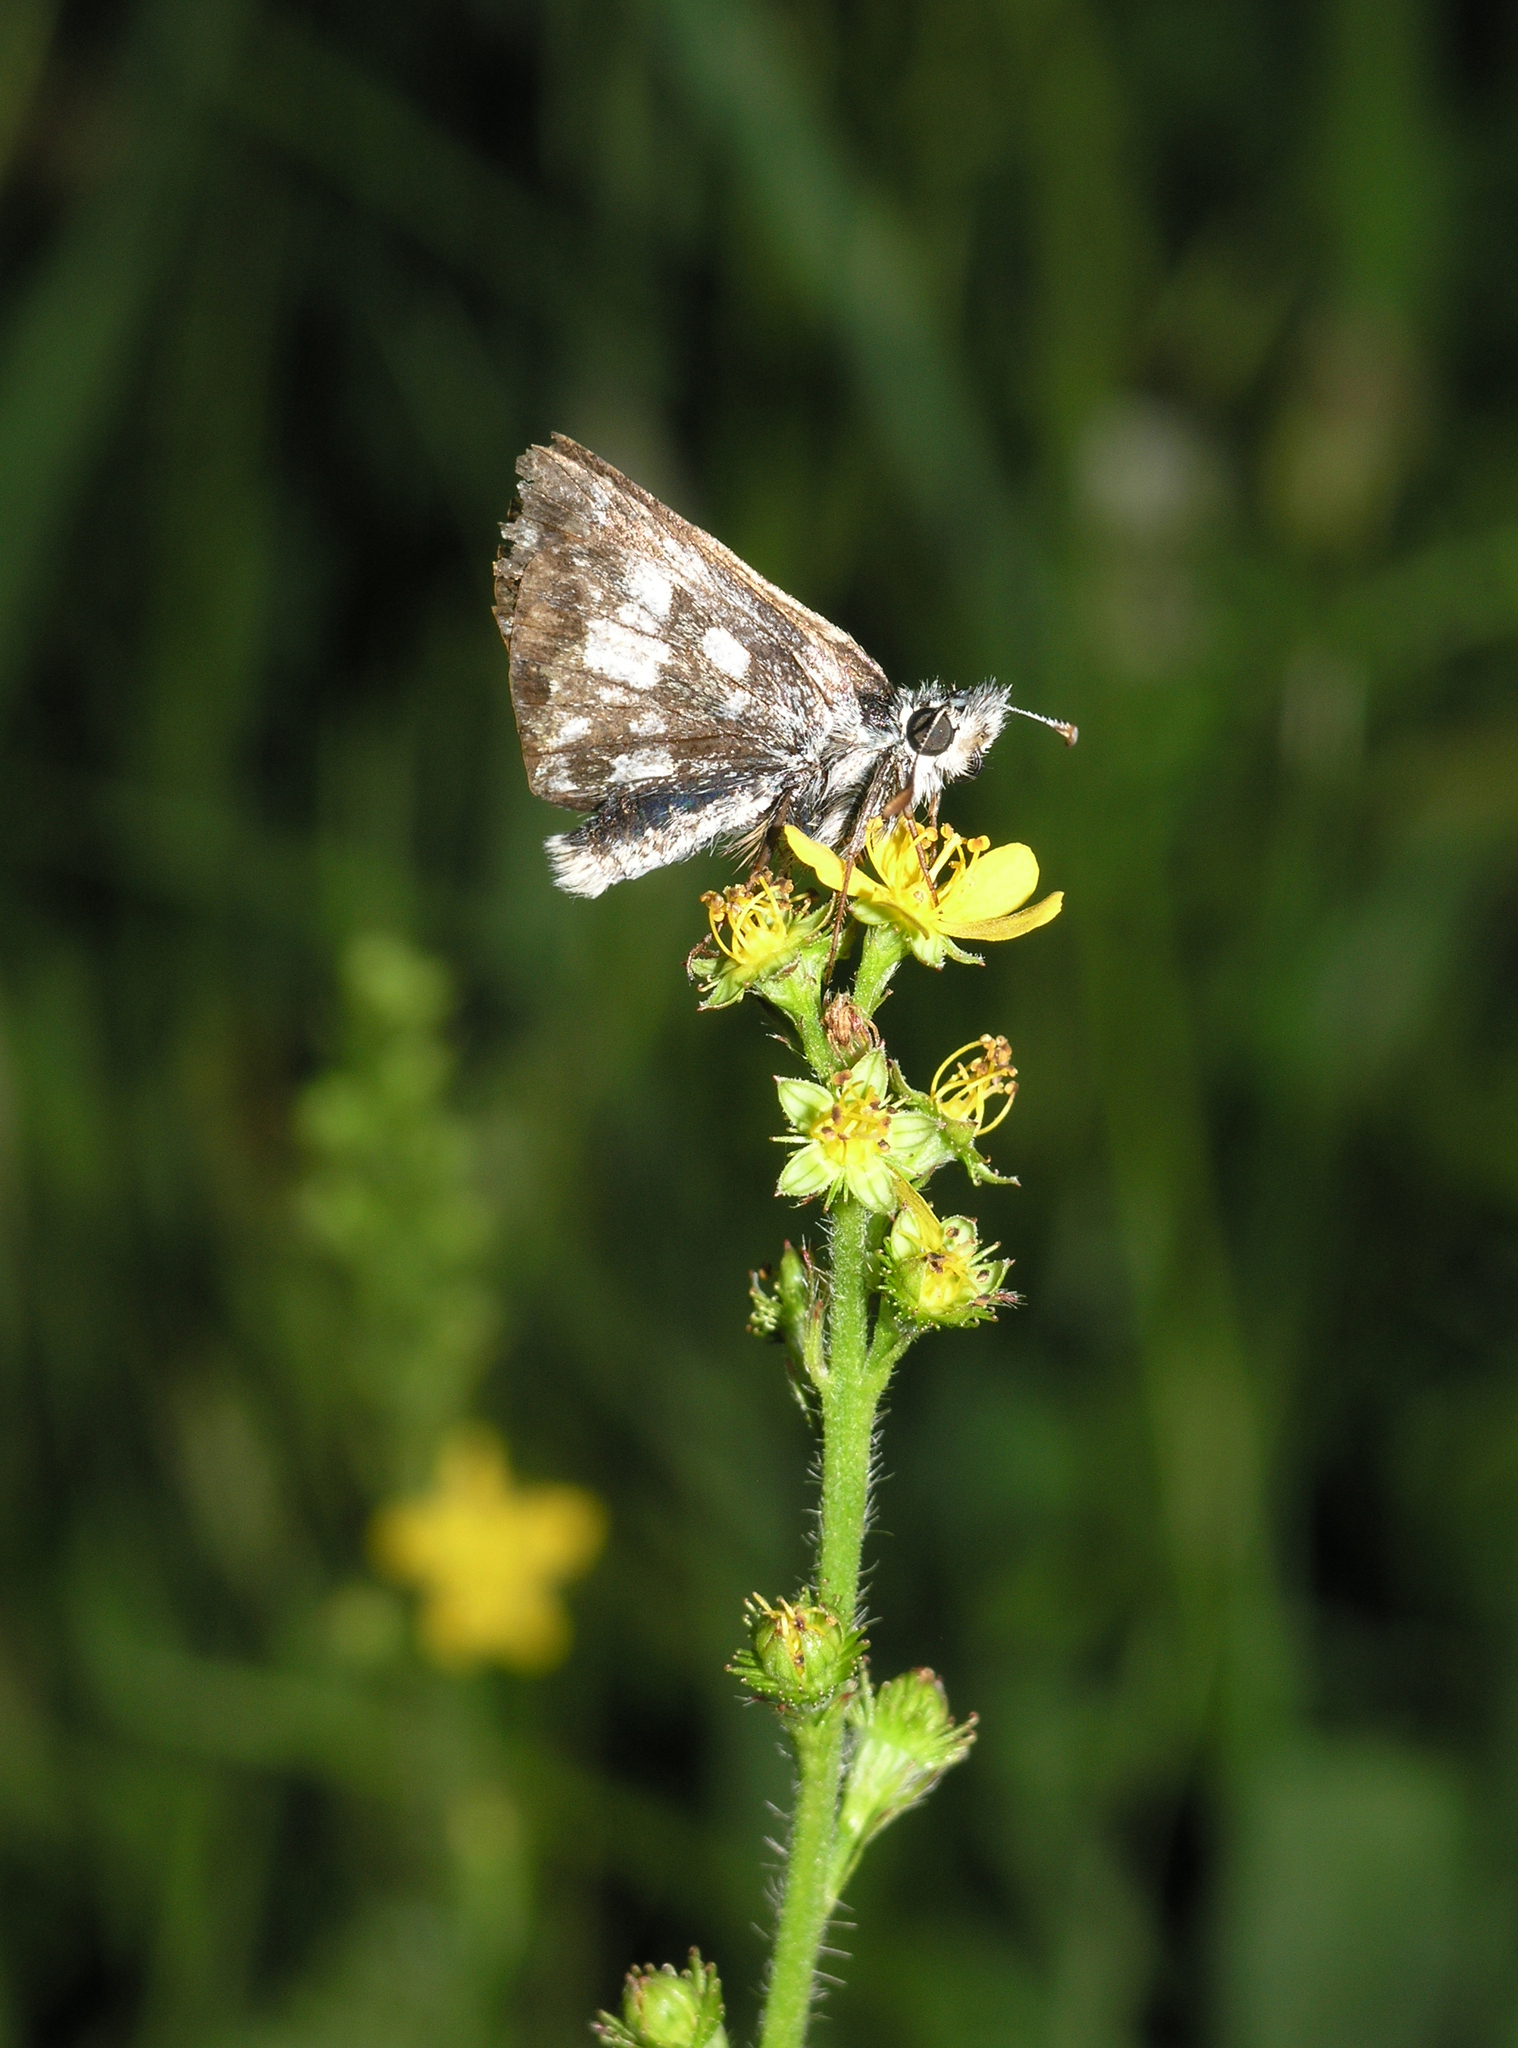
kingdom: Plantae
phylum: Tracheophyta
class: Magnoliopsida
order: Rosales
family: Rosaceae
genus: Agrimonia
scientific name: Agrimonia pilosa
